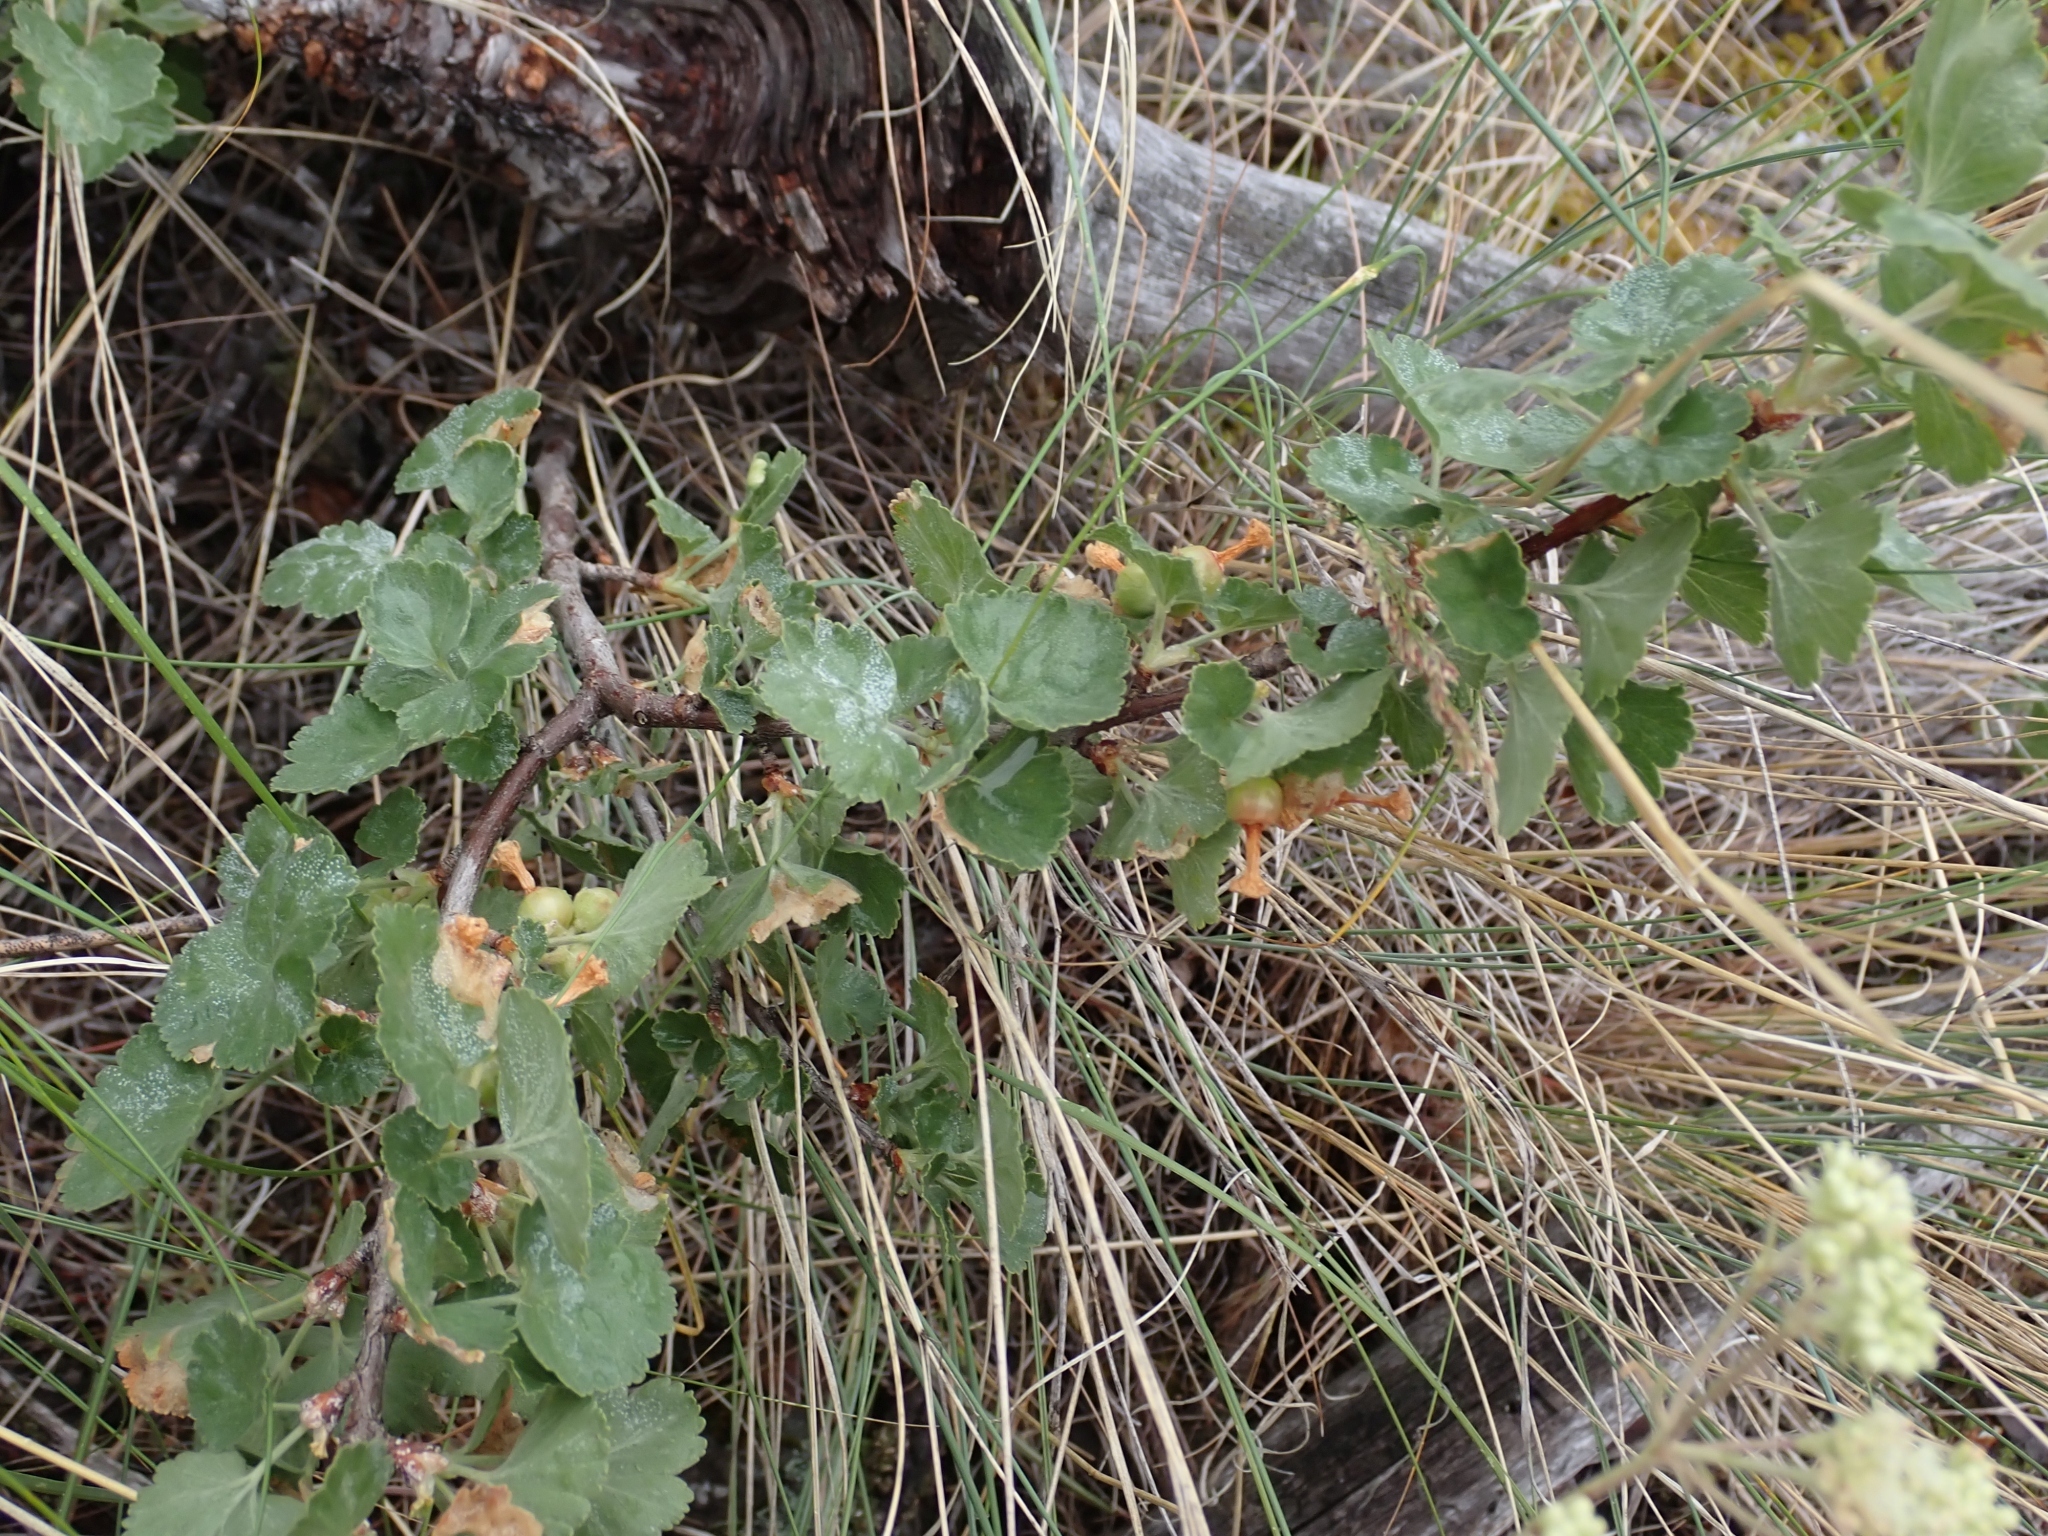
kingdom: Plantae
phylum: Tracheophyta
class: Magnoliopsida
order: Saxifragales
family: Grossulariaceae
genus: Ribes
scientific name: Ribes cereum
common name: Wax currant
